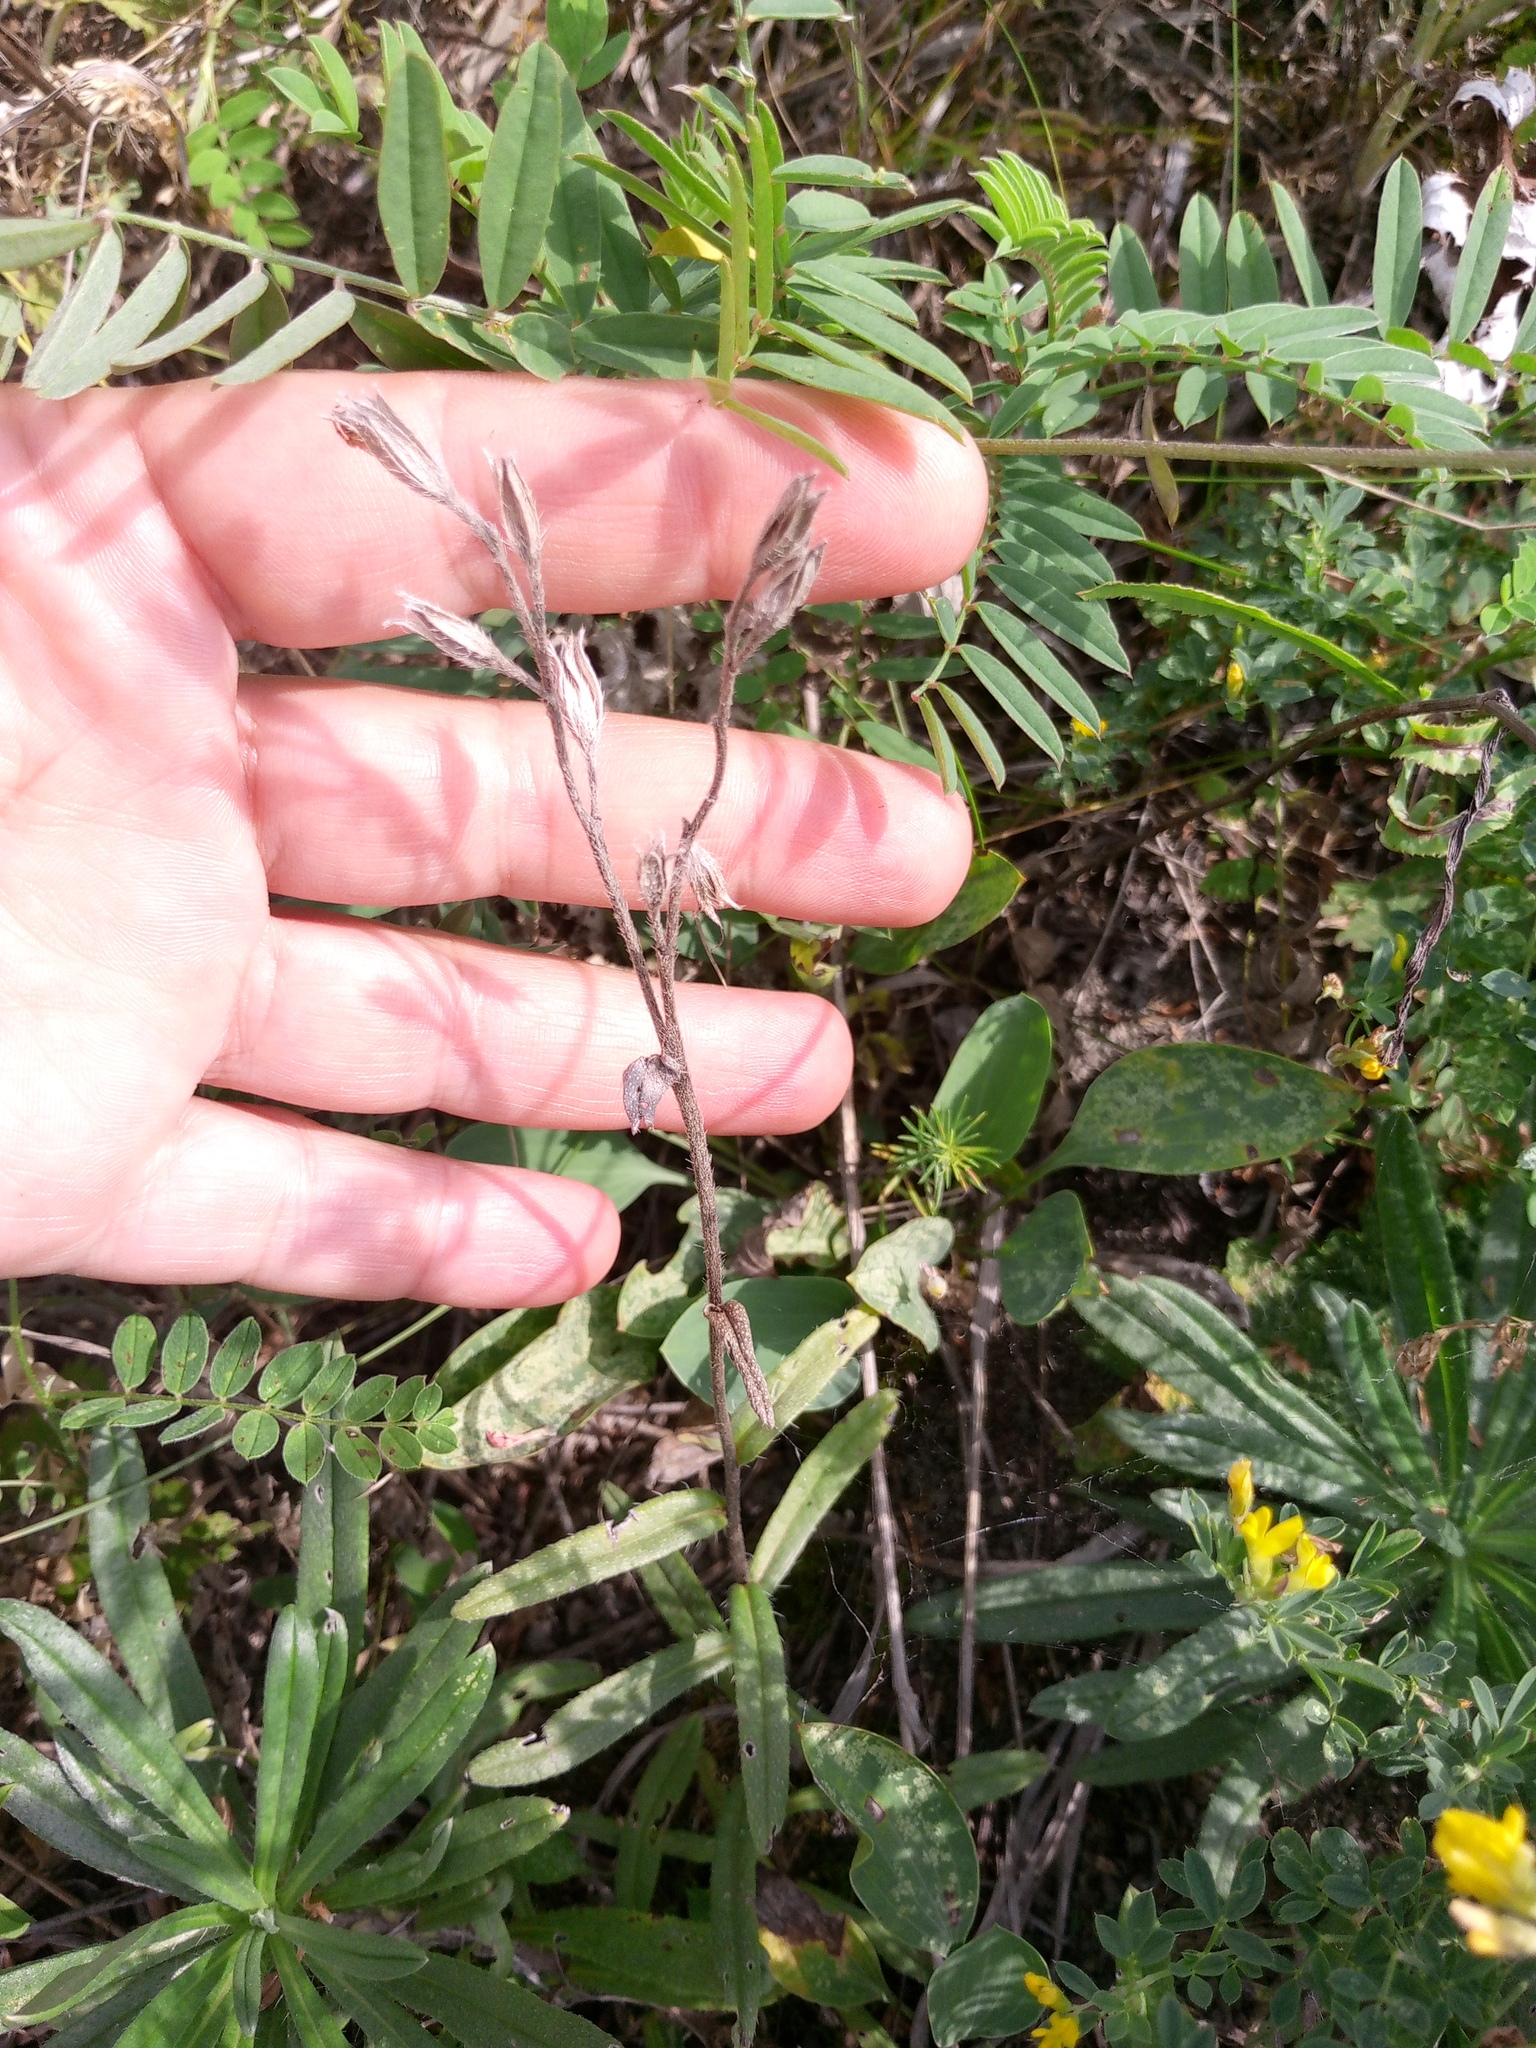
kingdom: Plantae
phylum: Tracheophyta
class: Magnoliopsida
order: Boraginales
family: Boraginaceae
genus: Onosma
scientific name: Onosma simplicissima
